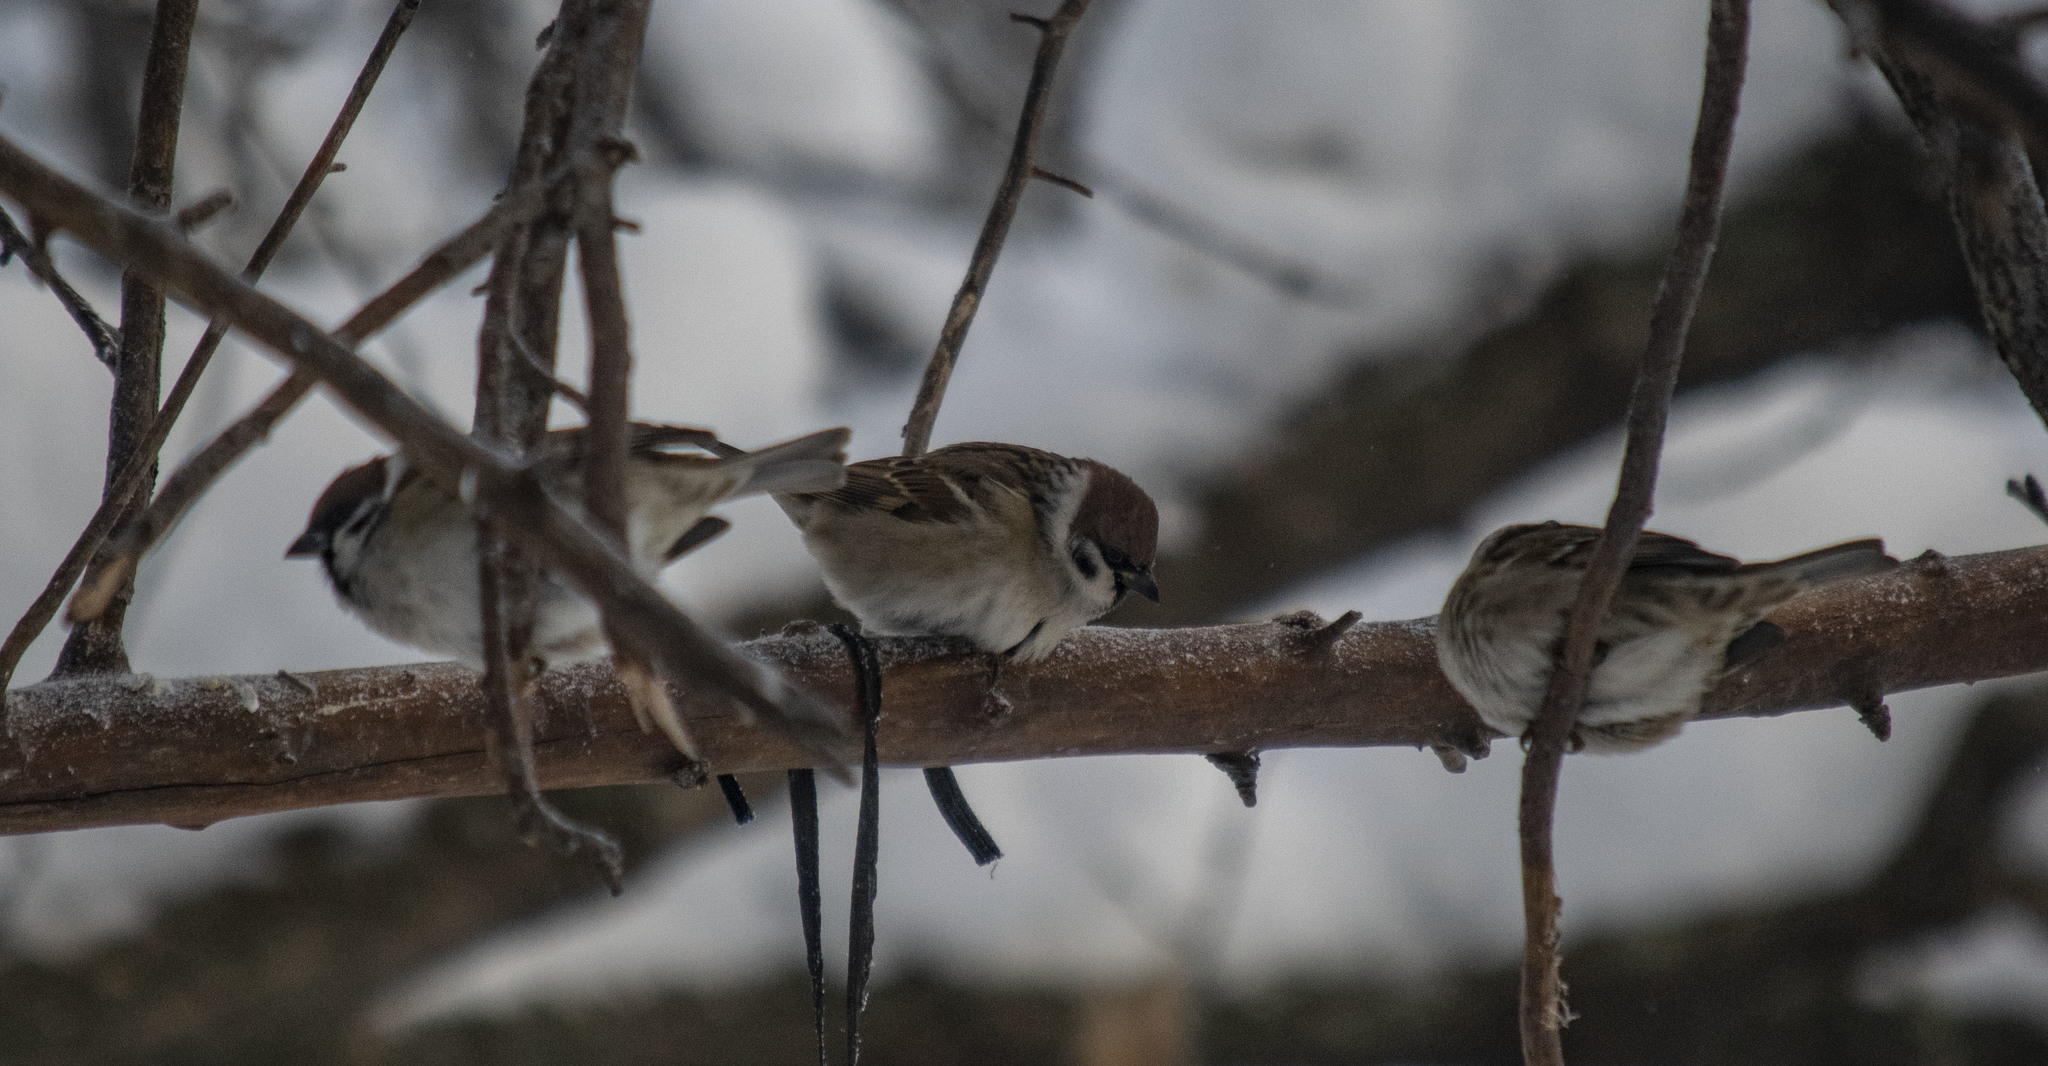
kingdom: Animalia
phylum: Chordata
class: Aves
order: Passeriformes
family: Passeridae
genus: Passer
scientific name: Passer montanus
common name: Eurasian tree sparrow
